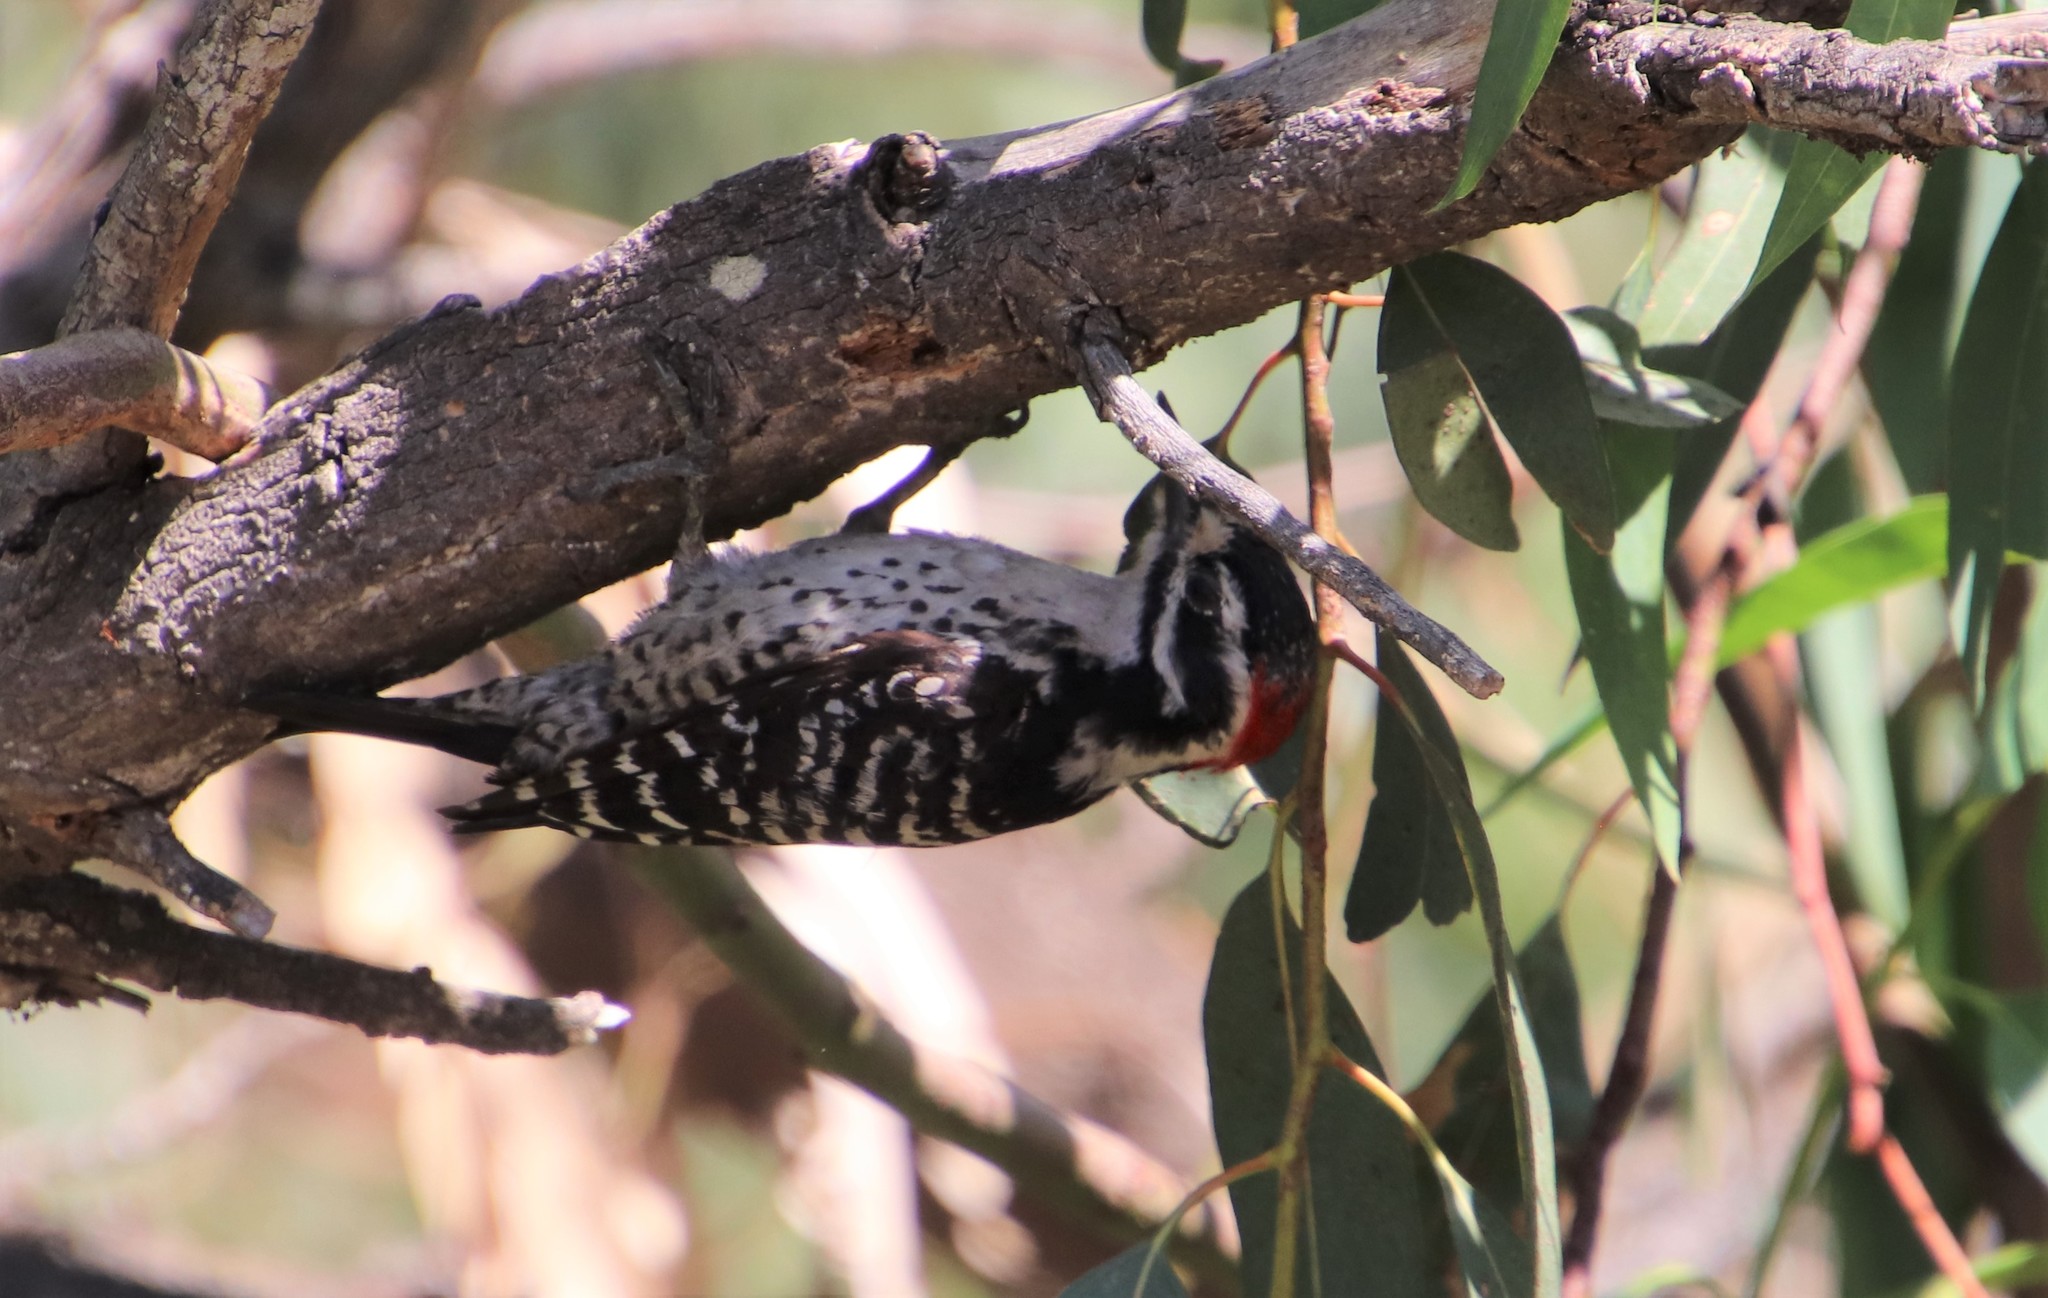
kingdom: Animalia
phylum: Chordata
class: Aves
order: Piciformes
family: Picidae
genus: Dryobates
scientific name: Dryobates nuttallii
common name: Nuttall's woodpecker
